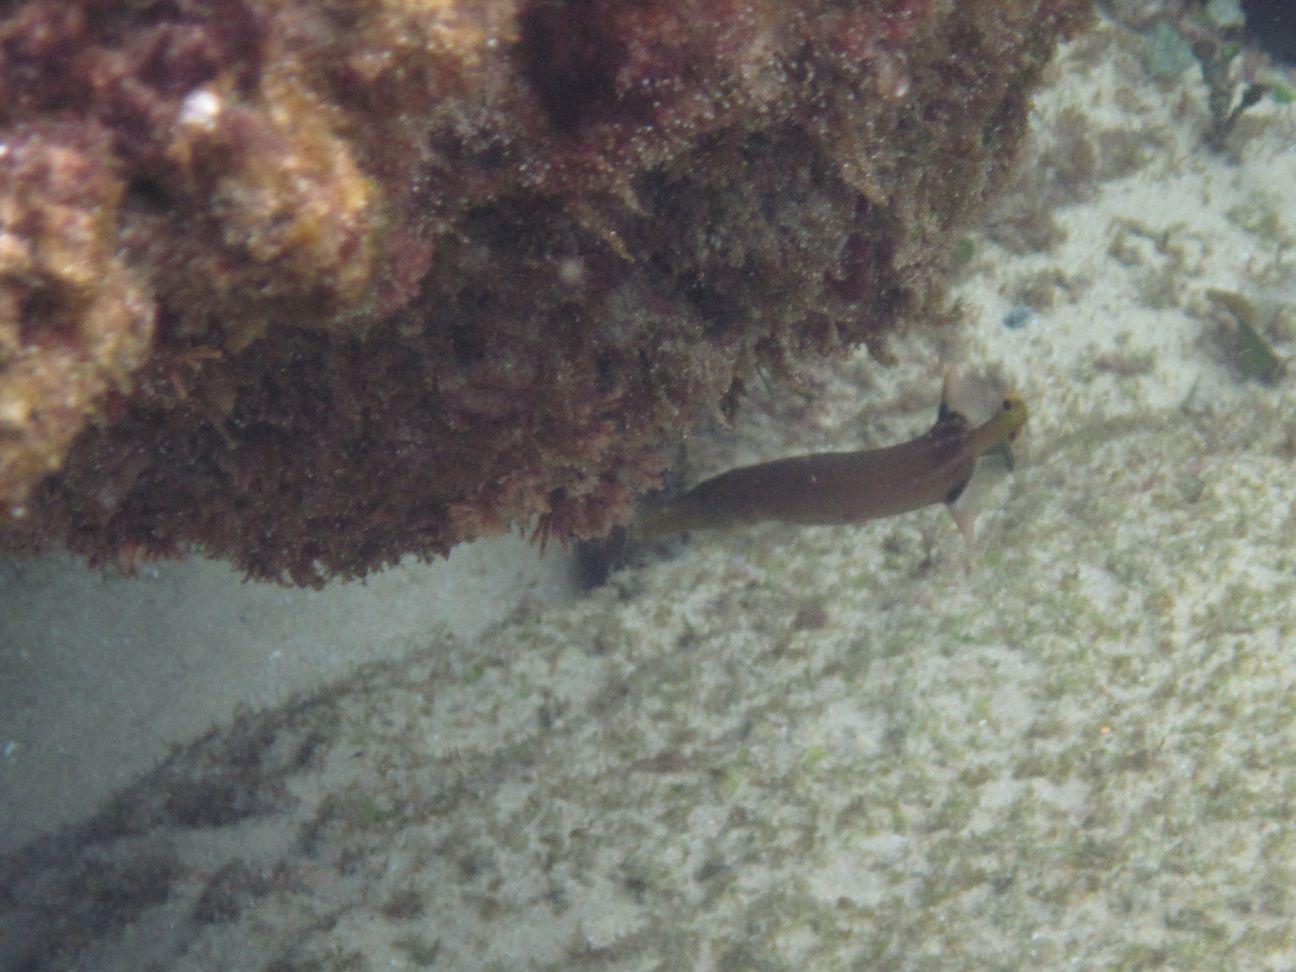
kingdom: Animalia
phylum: Chordata
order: Syngnathiformes
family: Aulostomidae
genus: Aulostomus
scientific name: Aulostomus chinensis
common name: Chinese trumpetfish
